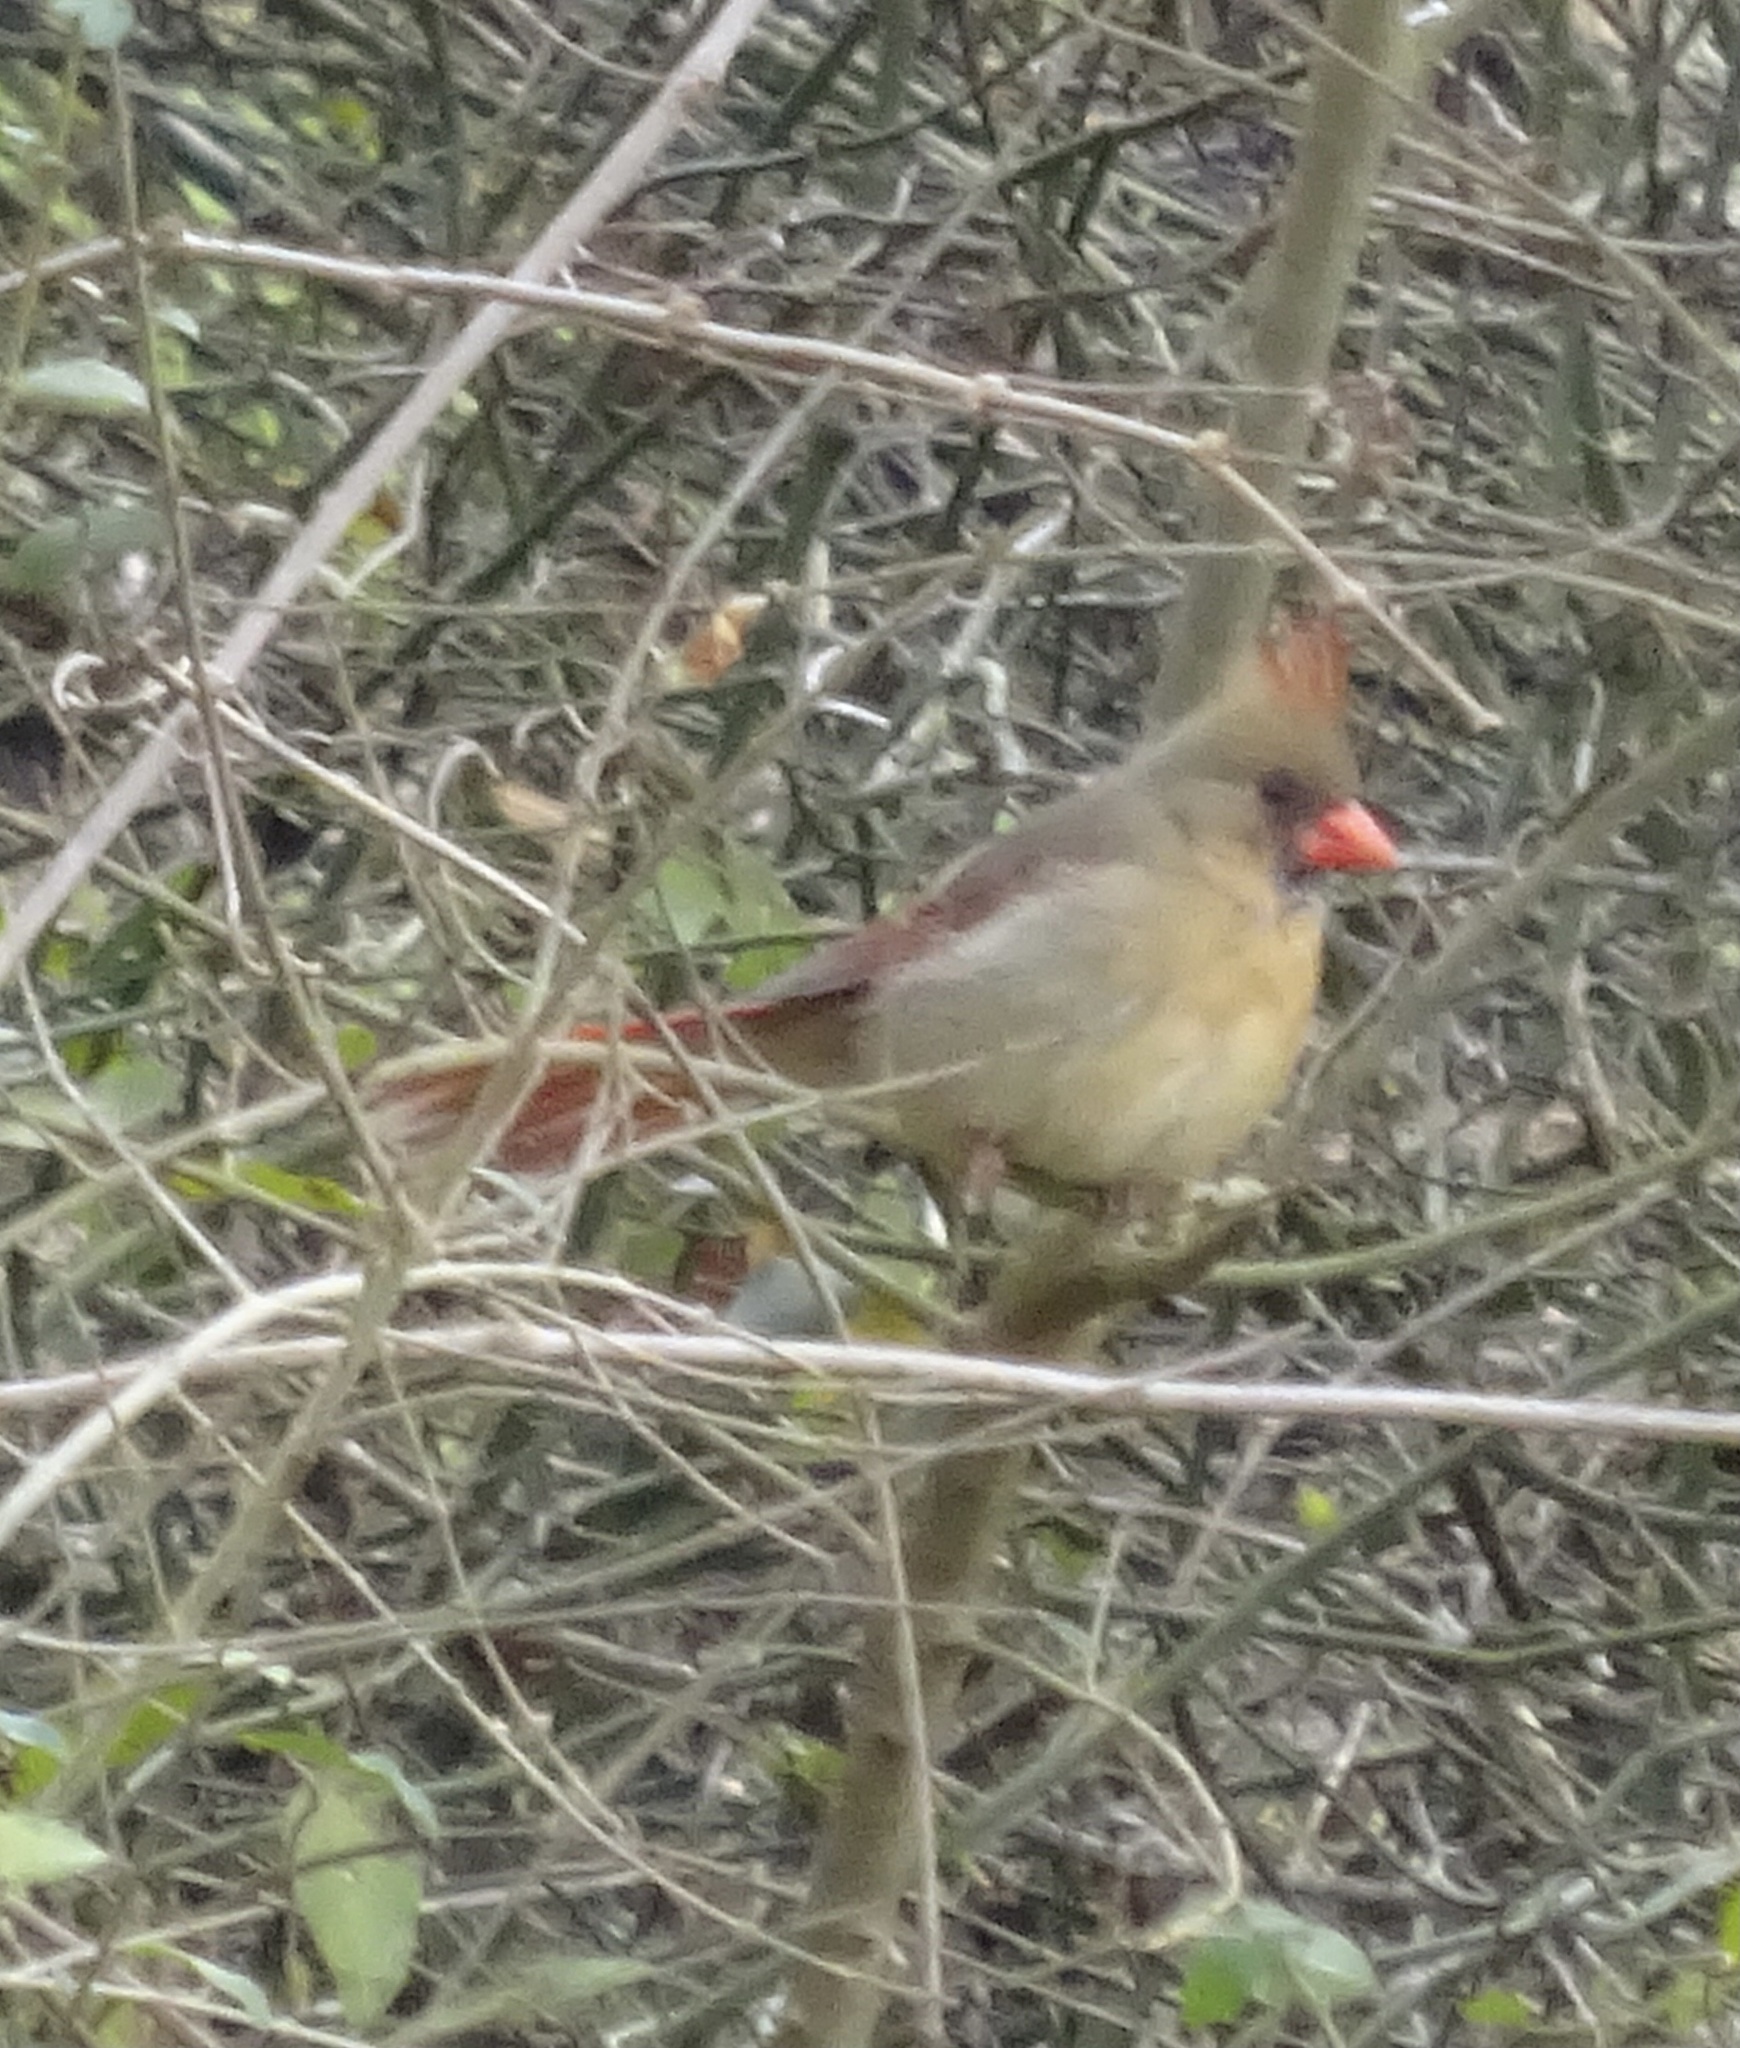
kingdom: Animalia
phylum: Chordata
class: Aves
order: Passeriformes
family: Cardinalidae
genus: Cardinalis
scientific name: Cardinalis cardinalis
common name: Northern cardinal
